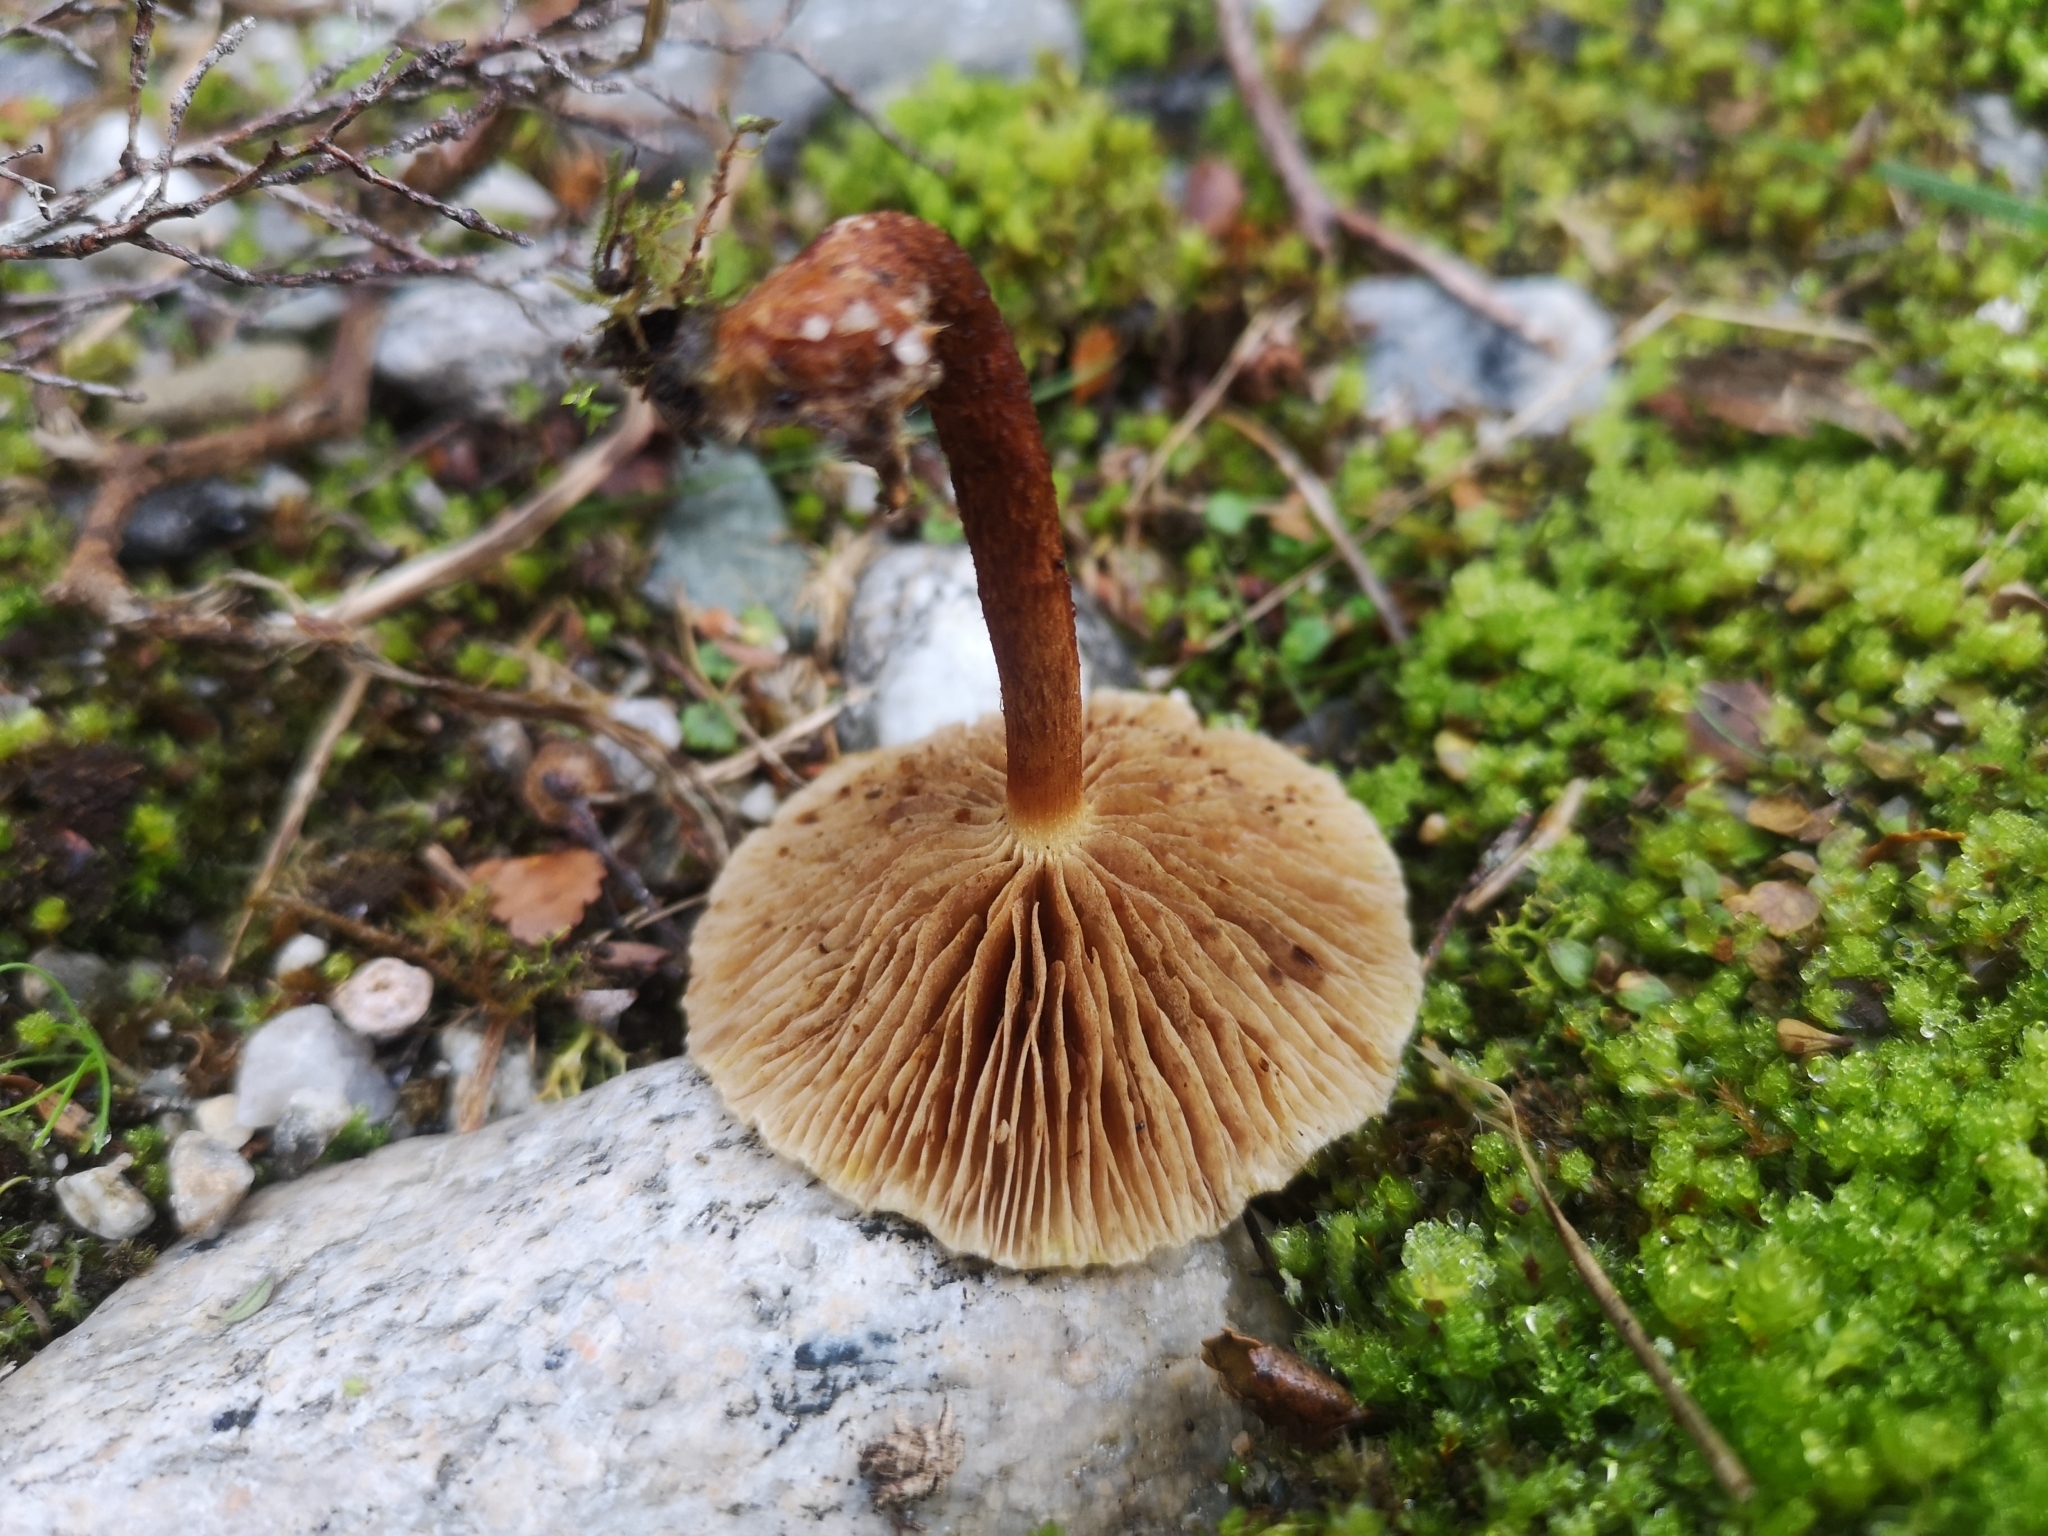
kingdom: Fungi
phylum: Basidiomycota
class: Agaricomycetes
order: Agaricales
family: Strophariaceae
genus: Pholiota
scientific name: Pholiota multicingulata
